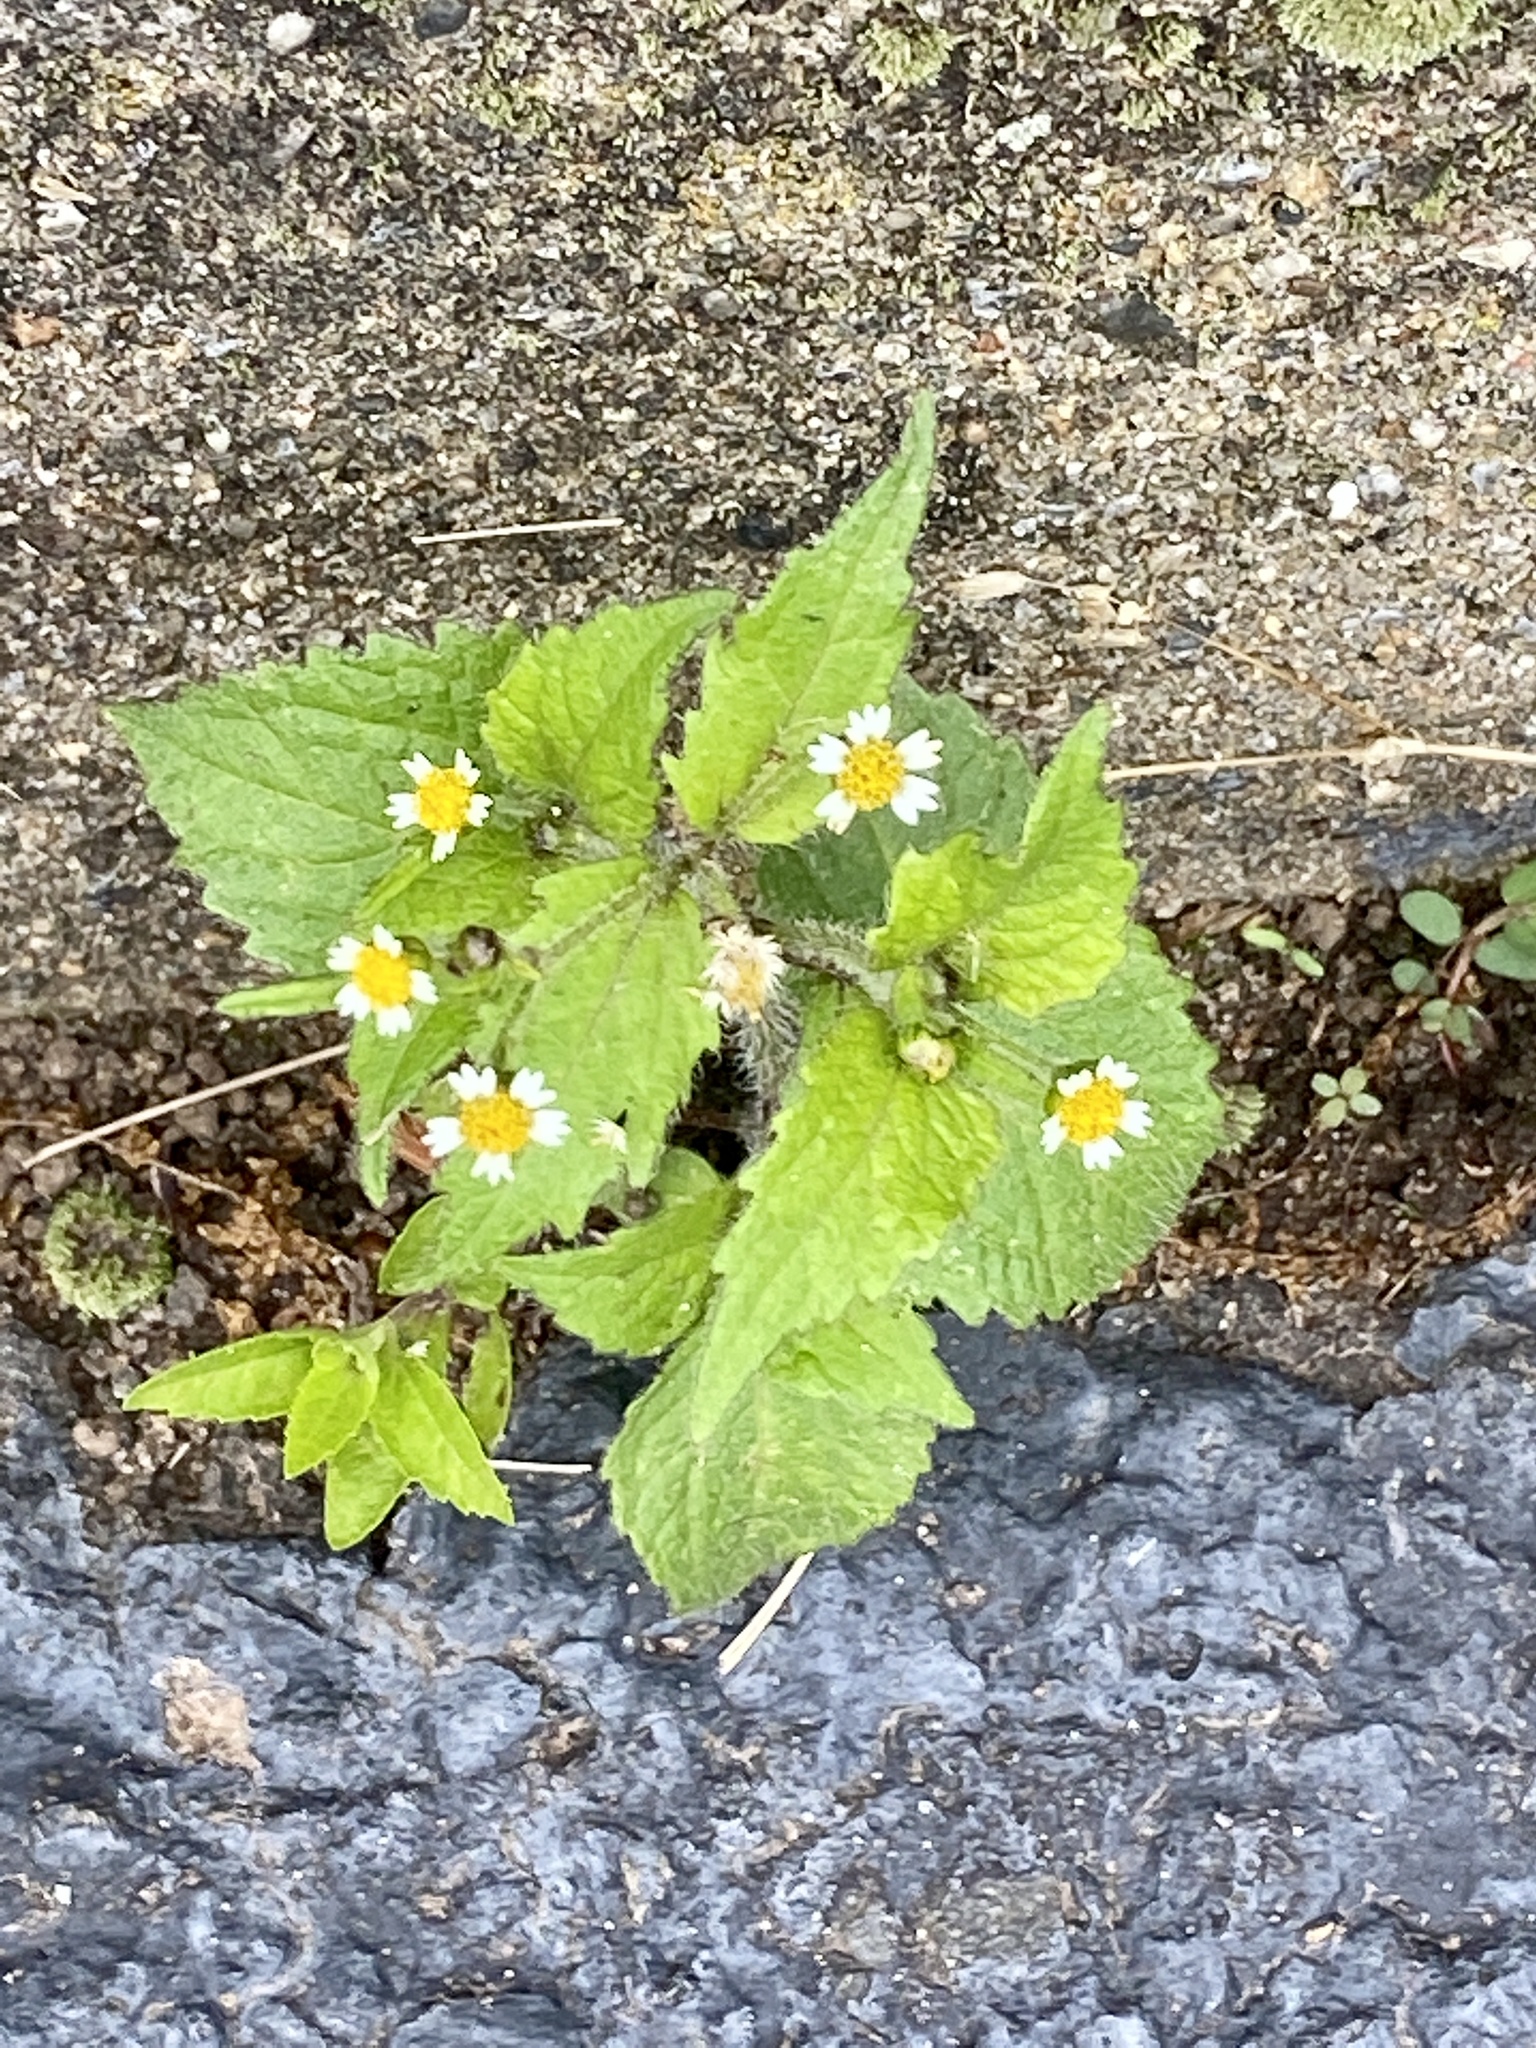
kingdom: Plantae
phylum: Tracheophyta
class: Magnoliopsida
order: Asterales
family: Asteraceae
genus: Galinsoga
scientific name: Galinsoga quadriradiata
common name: Shaggy soldier
